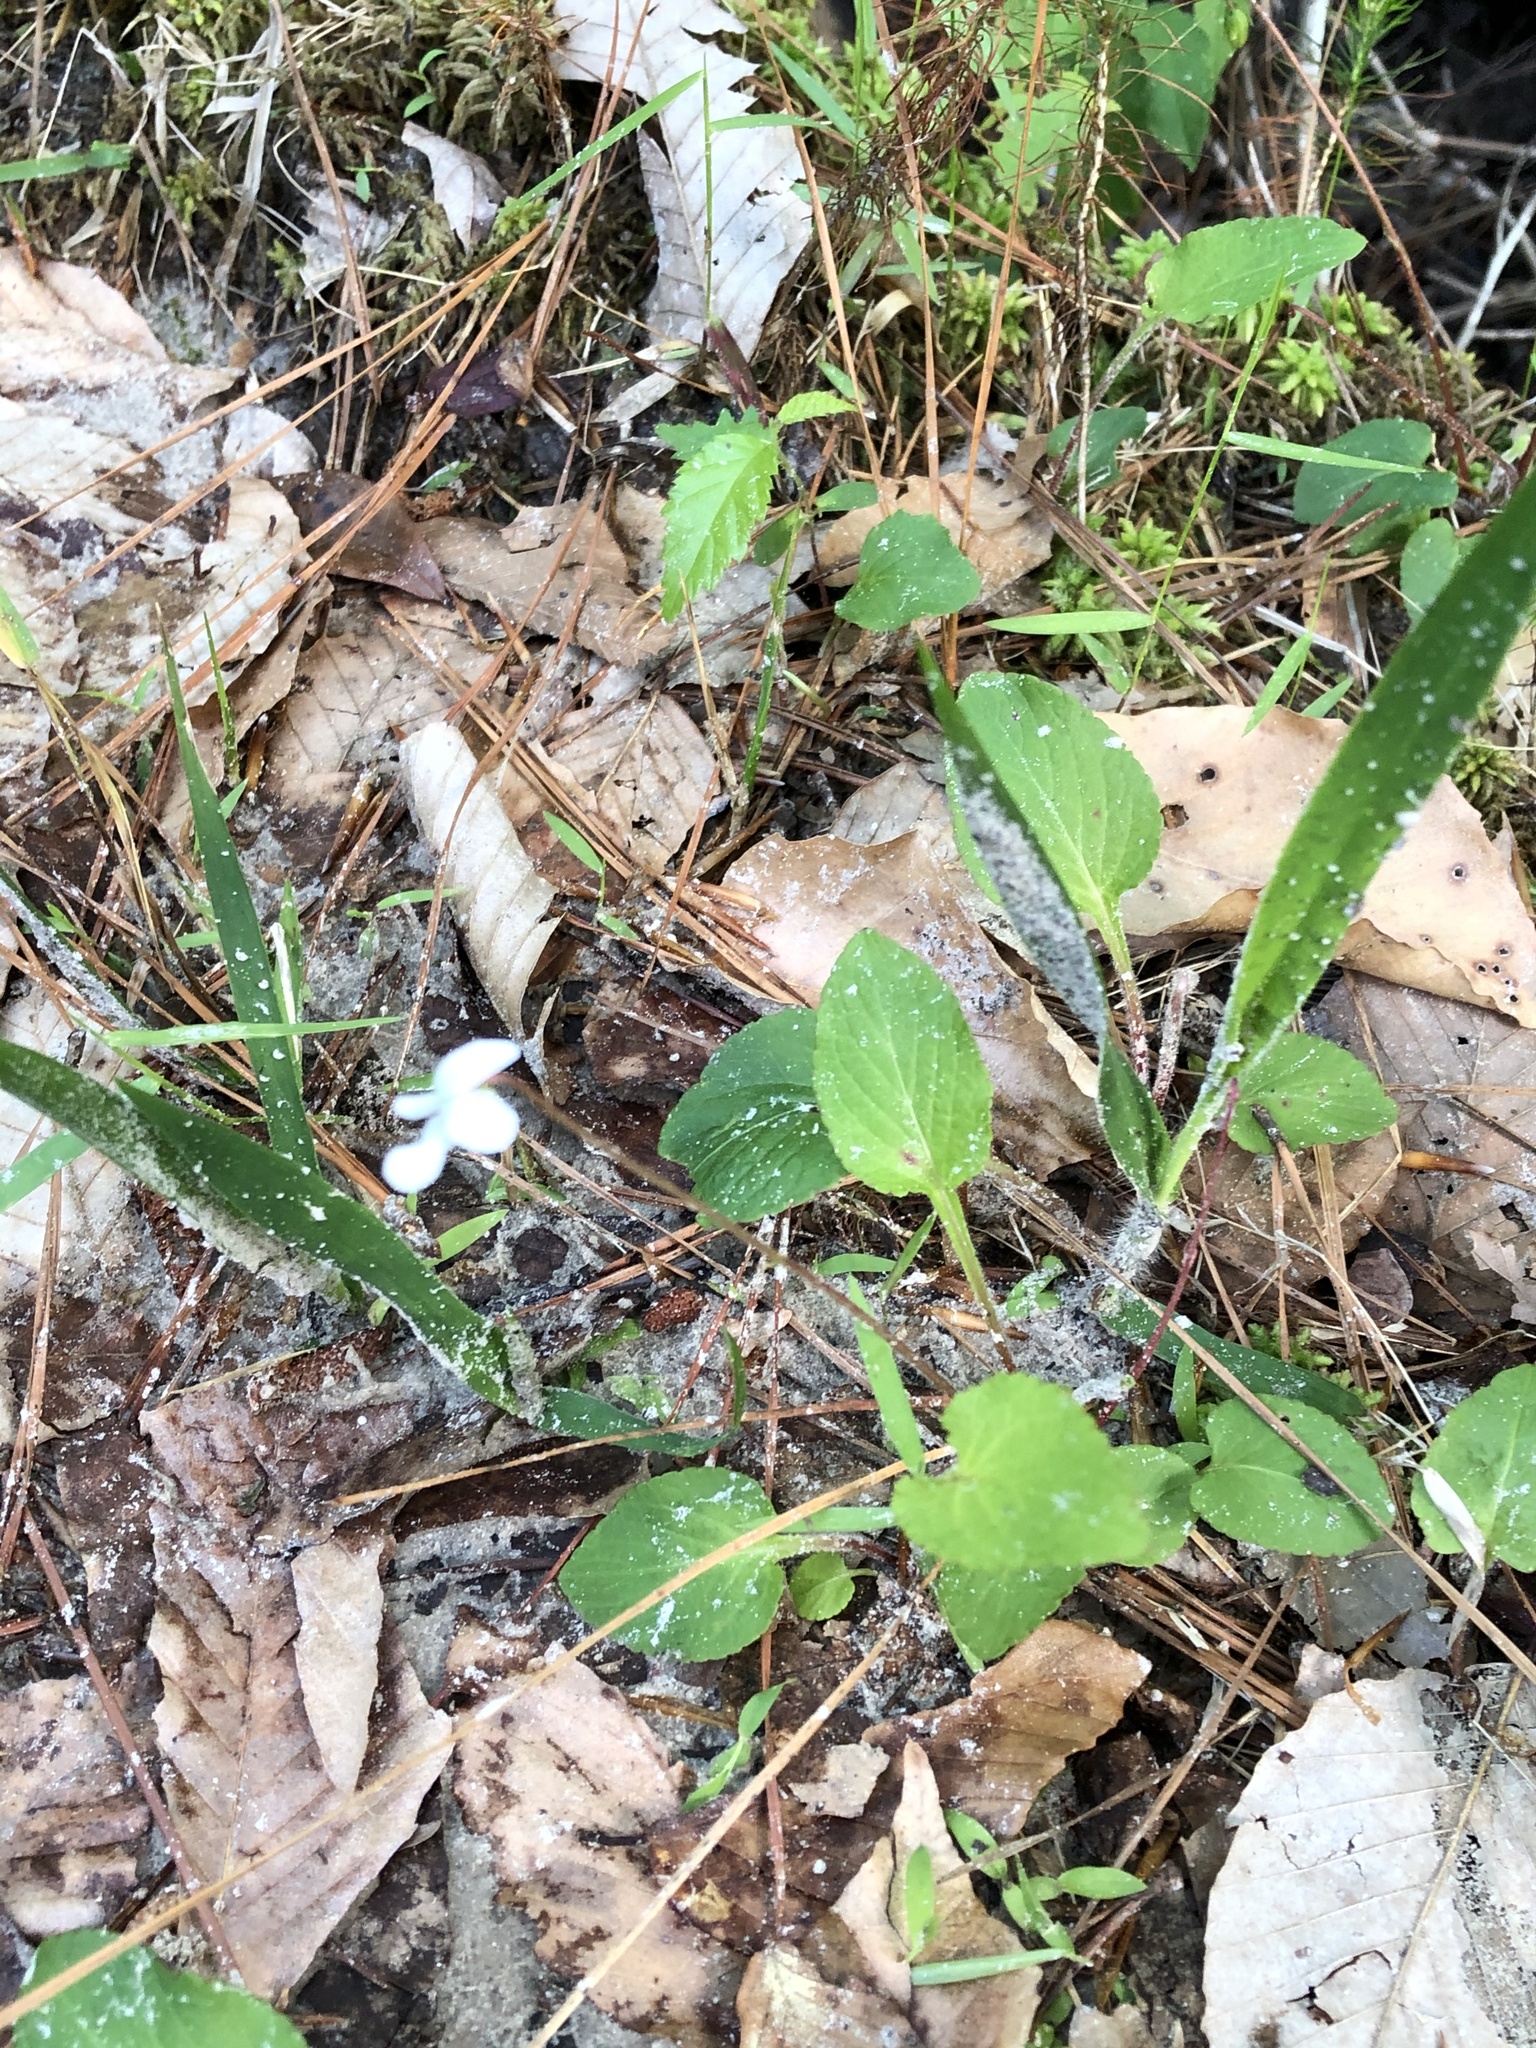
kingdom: Plantae
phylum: Tracheophyta
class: Magnoliopsida
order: Malpighiales
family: Violaceae
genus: Viola
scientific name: Viola primulifolia
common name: Primrose-leaf violet
